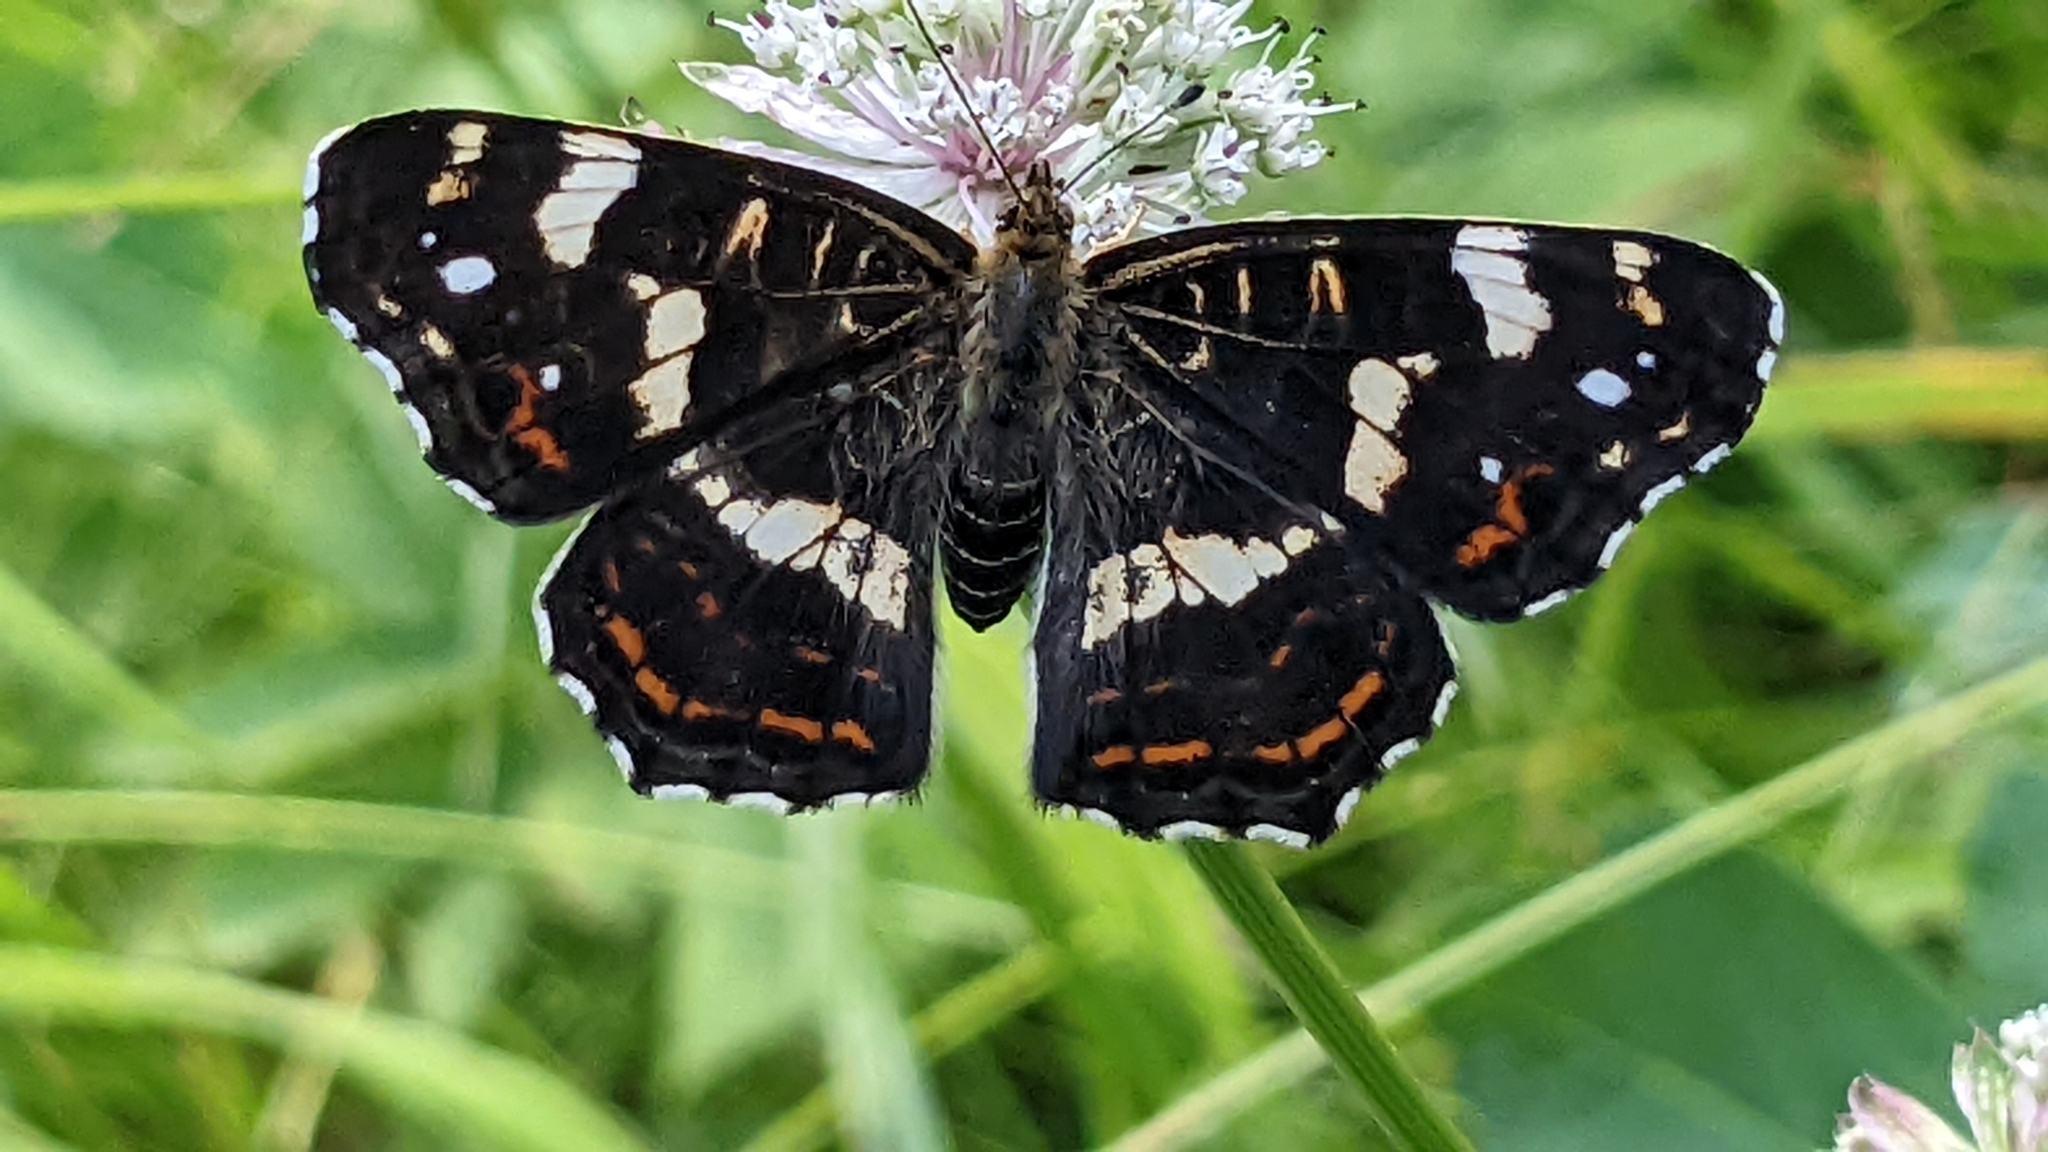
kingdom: Animalia
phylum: Arthropoda
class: Insecta
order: Lepidoptera
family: Nymphalidae
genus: Araschnia
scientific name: Araschnia levana
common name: Map butterfly
